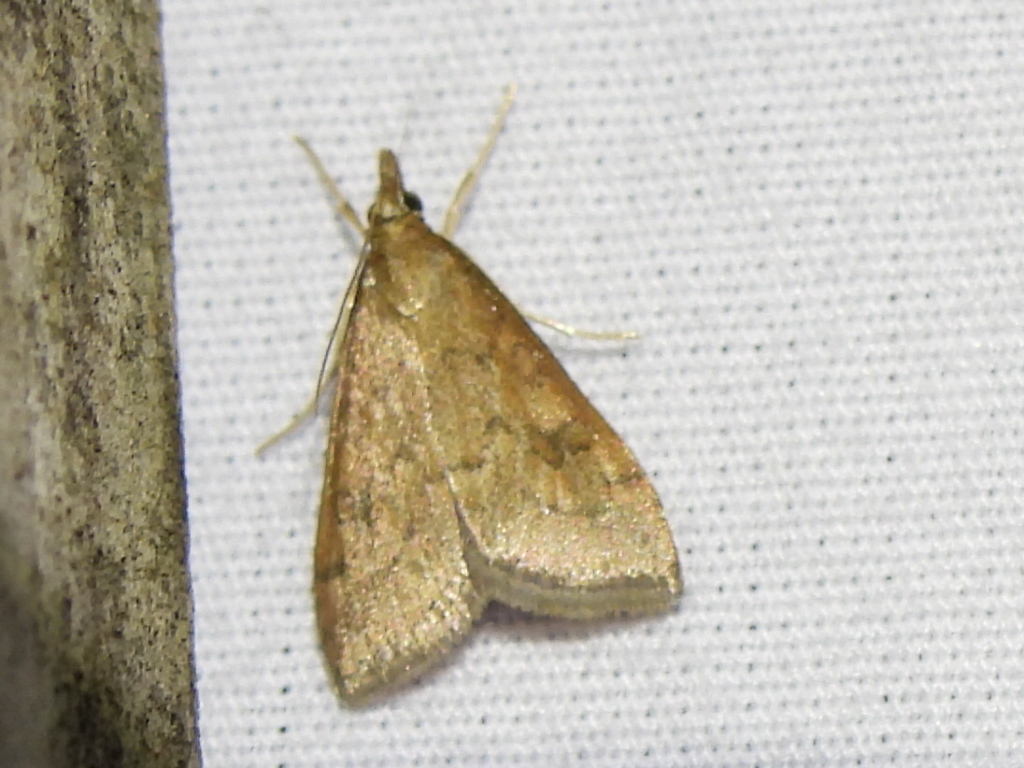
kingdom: Animalia
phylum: Arthropoda
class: Insecta
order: Lepidoptera
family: Crambidae
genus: Udea
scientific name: Udea rubigalis
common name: Celery leaftier moth
